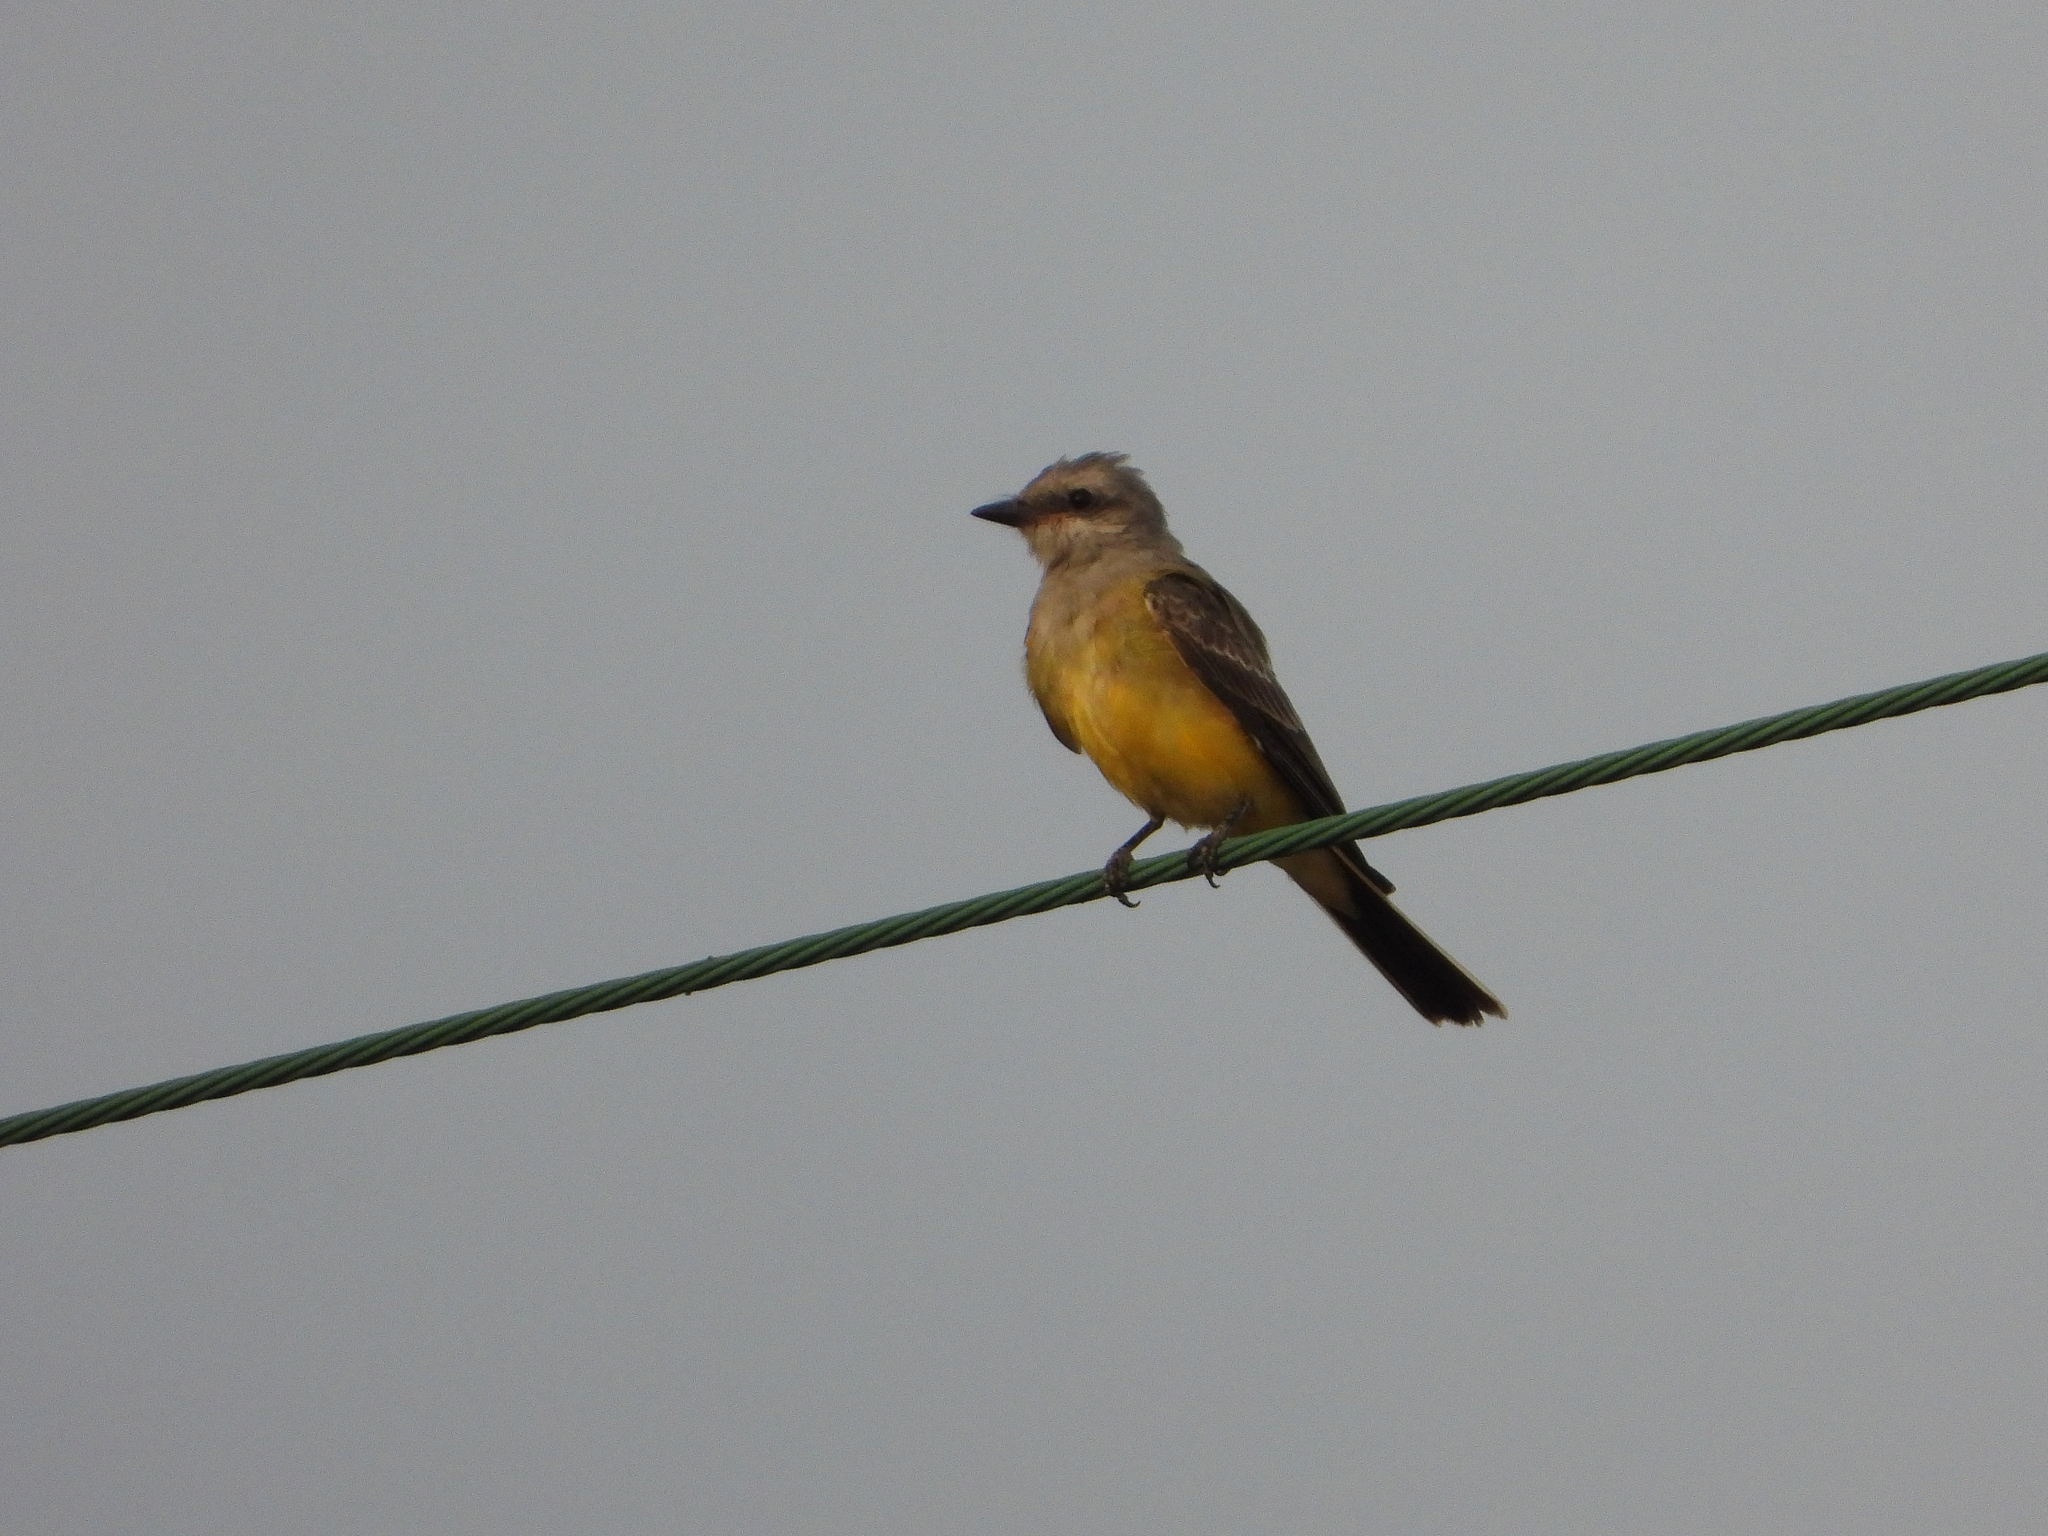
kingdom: Animalia
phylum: Chordata
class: Aves
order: Passeriformes
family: Tyrannidae
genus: Tyrannus
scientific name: Tyrannus verticalis
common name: Western kingbird
